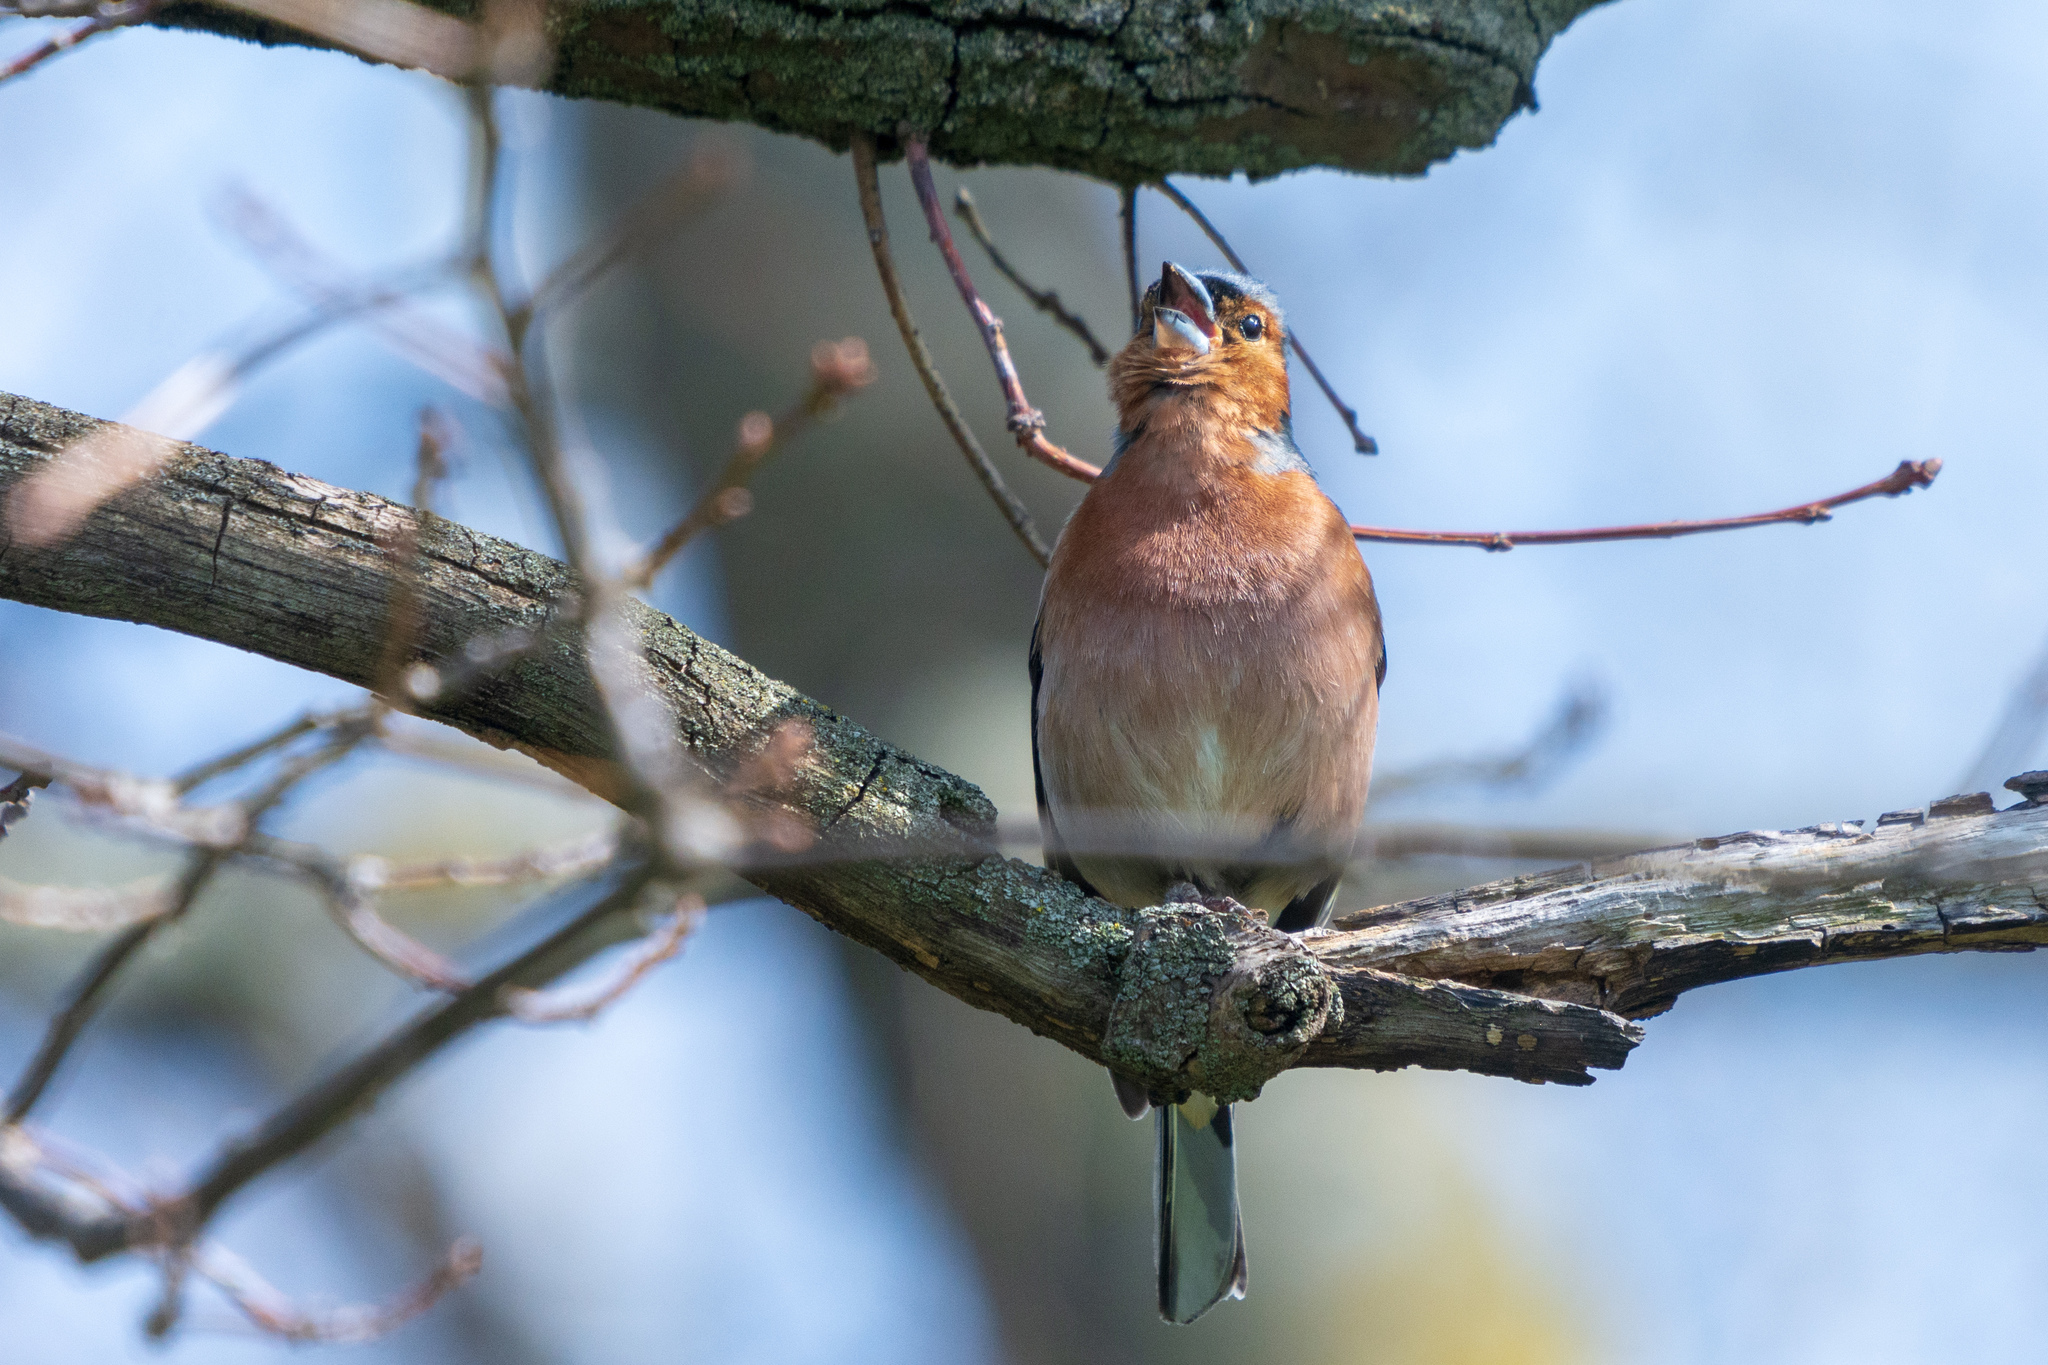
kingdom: Animalia
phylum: Chordata
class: Aves
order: Passeriformes
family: Fringillidae
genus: Fringilla
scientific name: Fringilla coelebs
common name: Common chaffinch
